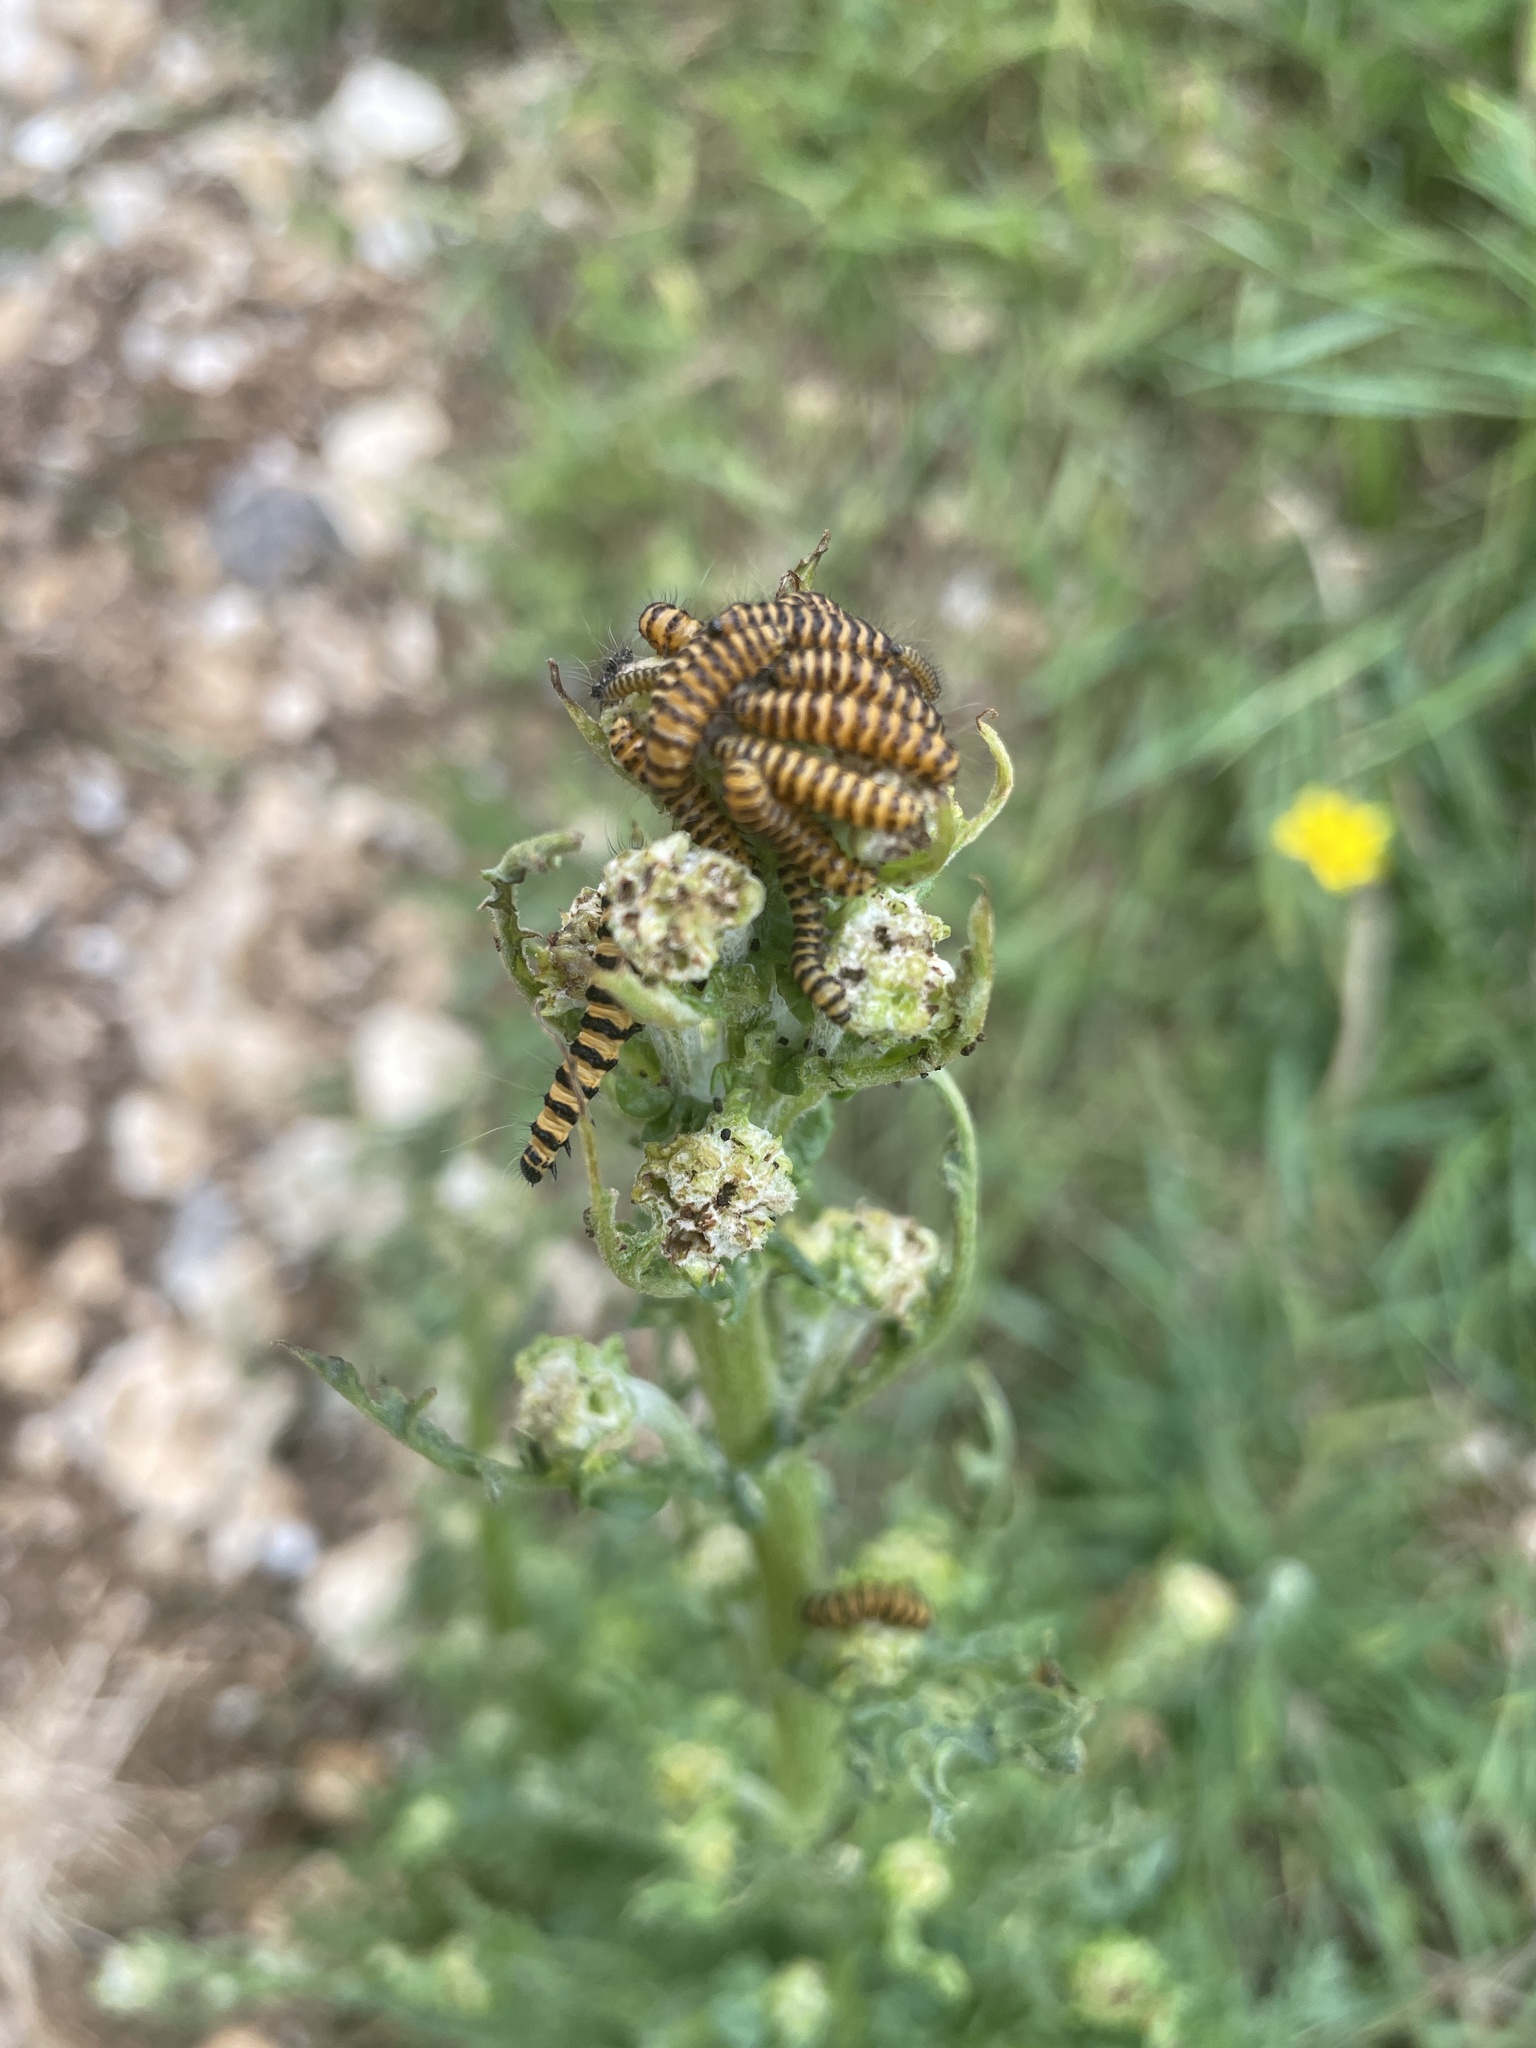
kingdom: Animalia
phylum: Arthropoda
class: Insecta
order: Lepidoptera
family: Erebidae
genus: Tyria
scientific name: Tyria jacobaeae
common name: Cinnabar
